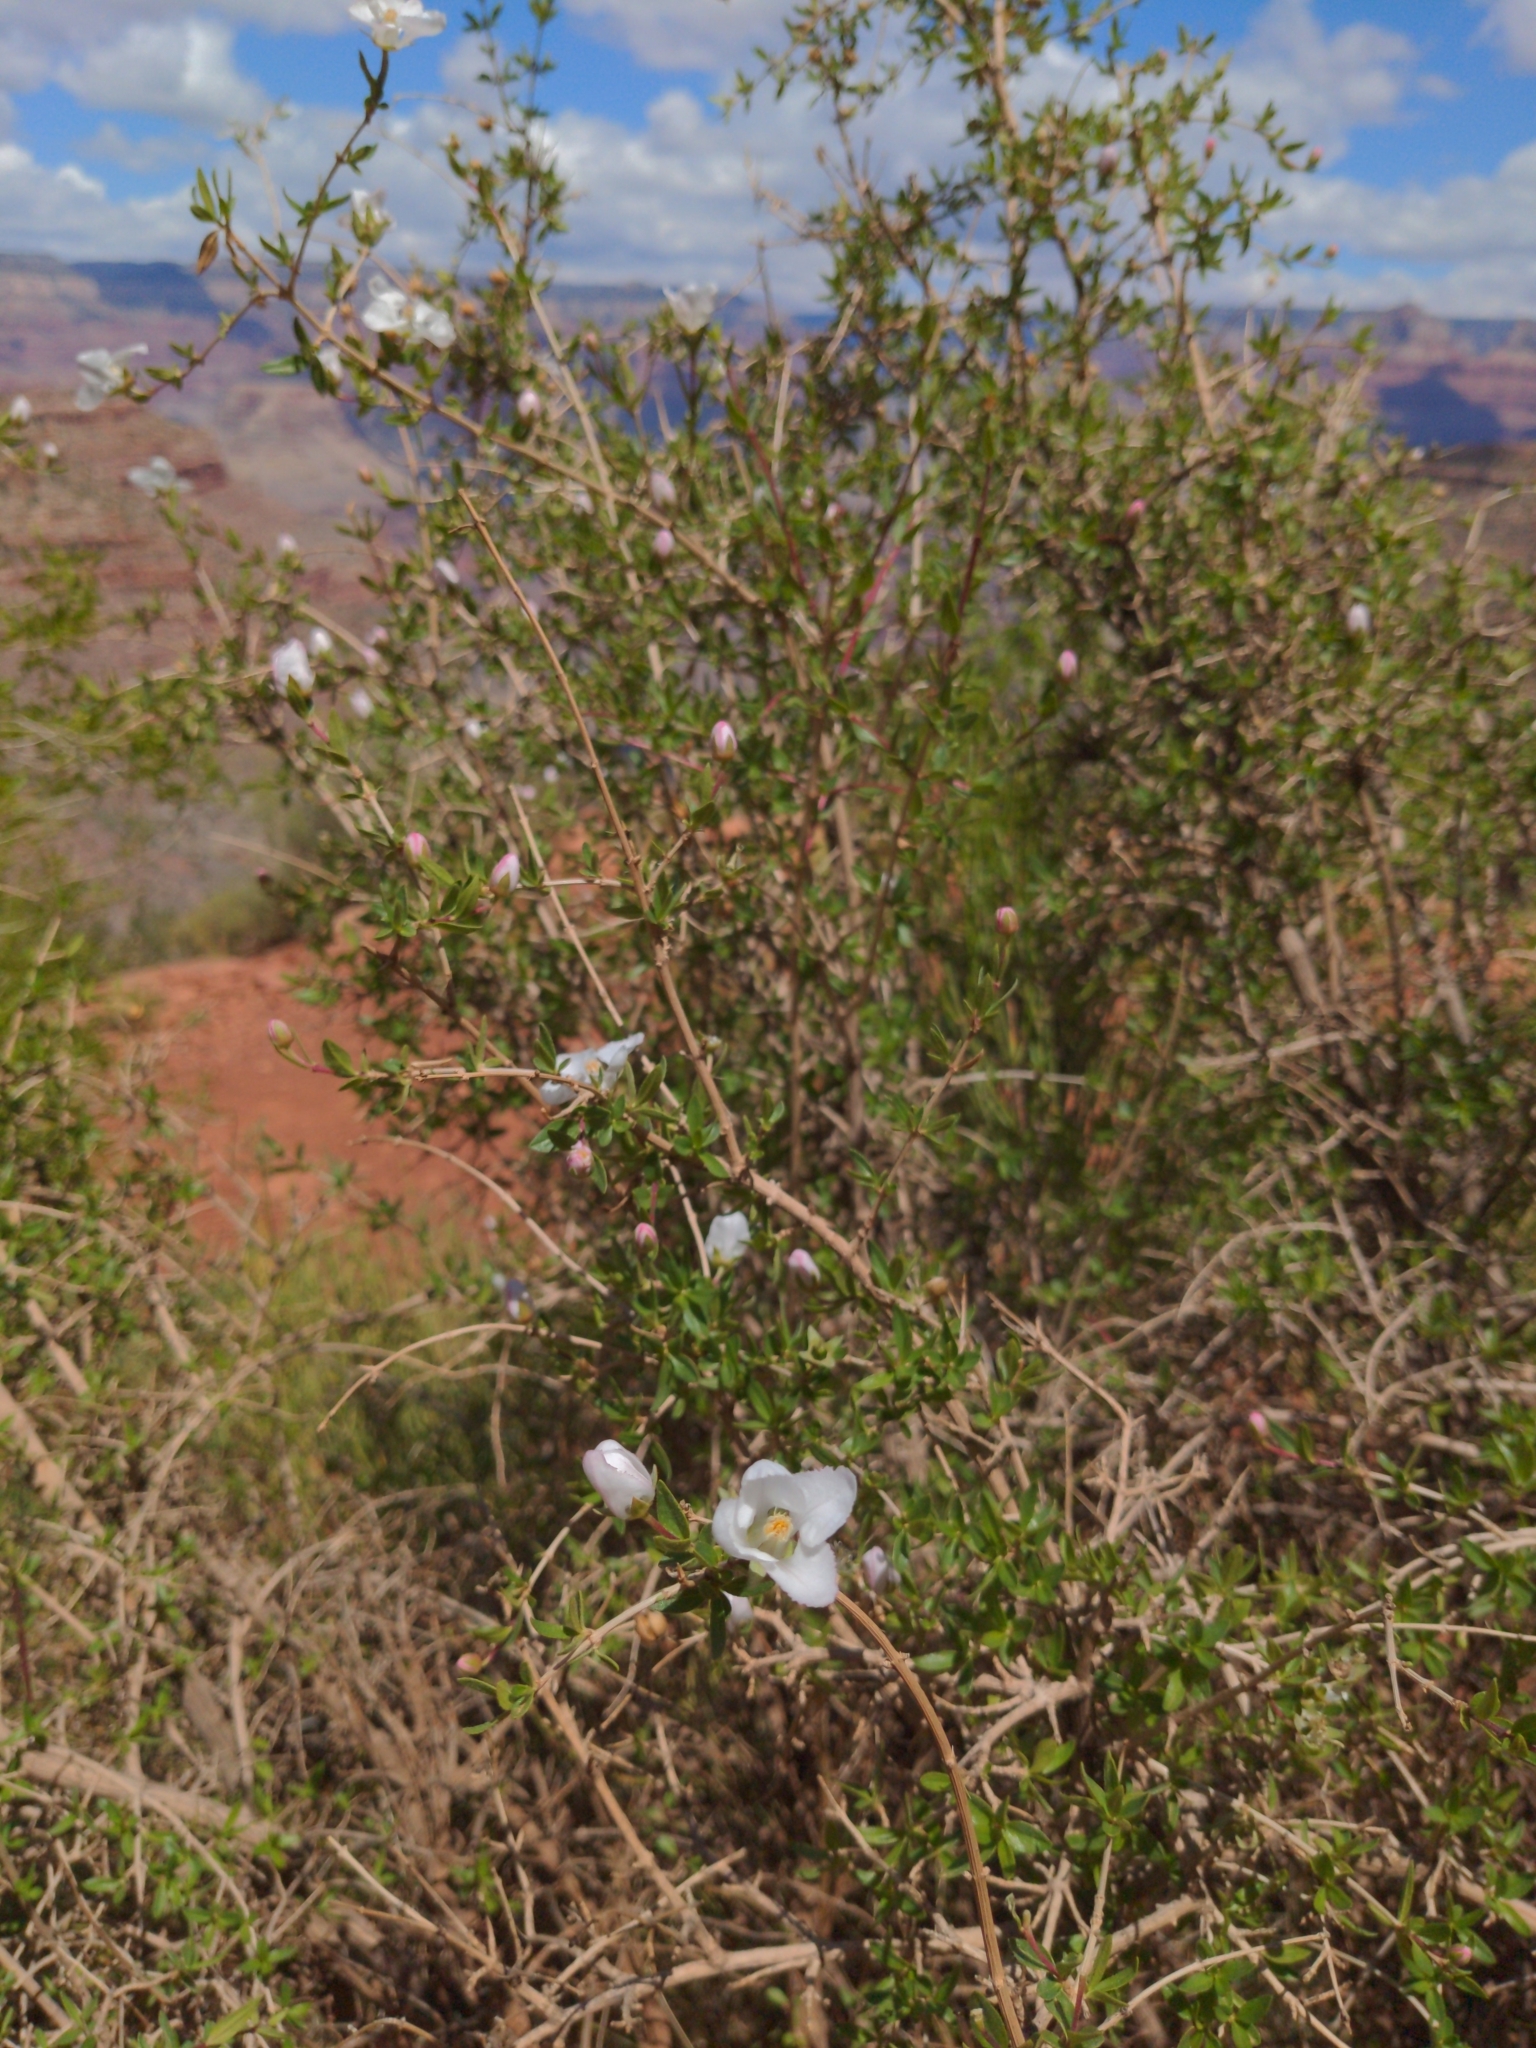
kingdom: Plantae
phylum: Tracheophyta
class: Magnoliopsida
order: Rosales
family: Rosaceae
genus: Fallugia
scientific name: Fallugia paradoxa
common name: Apache-plume
